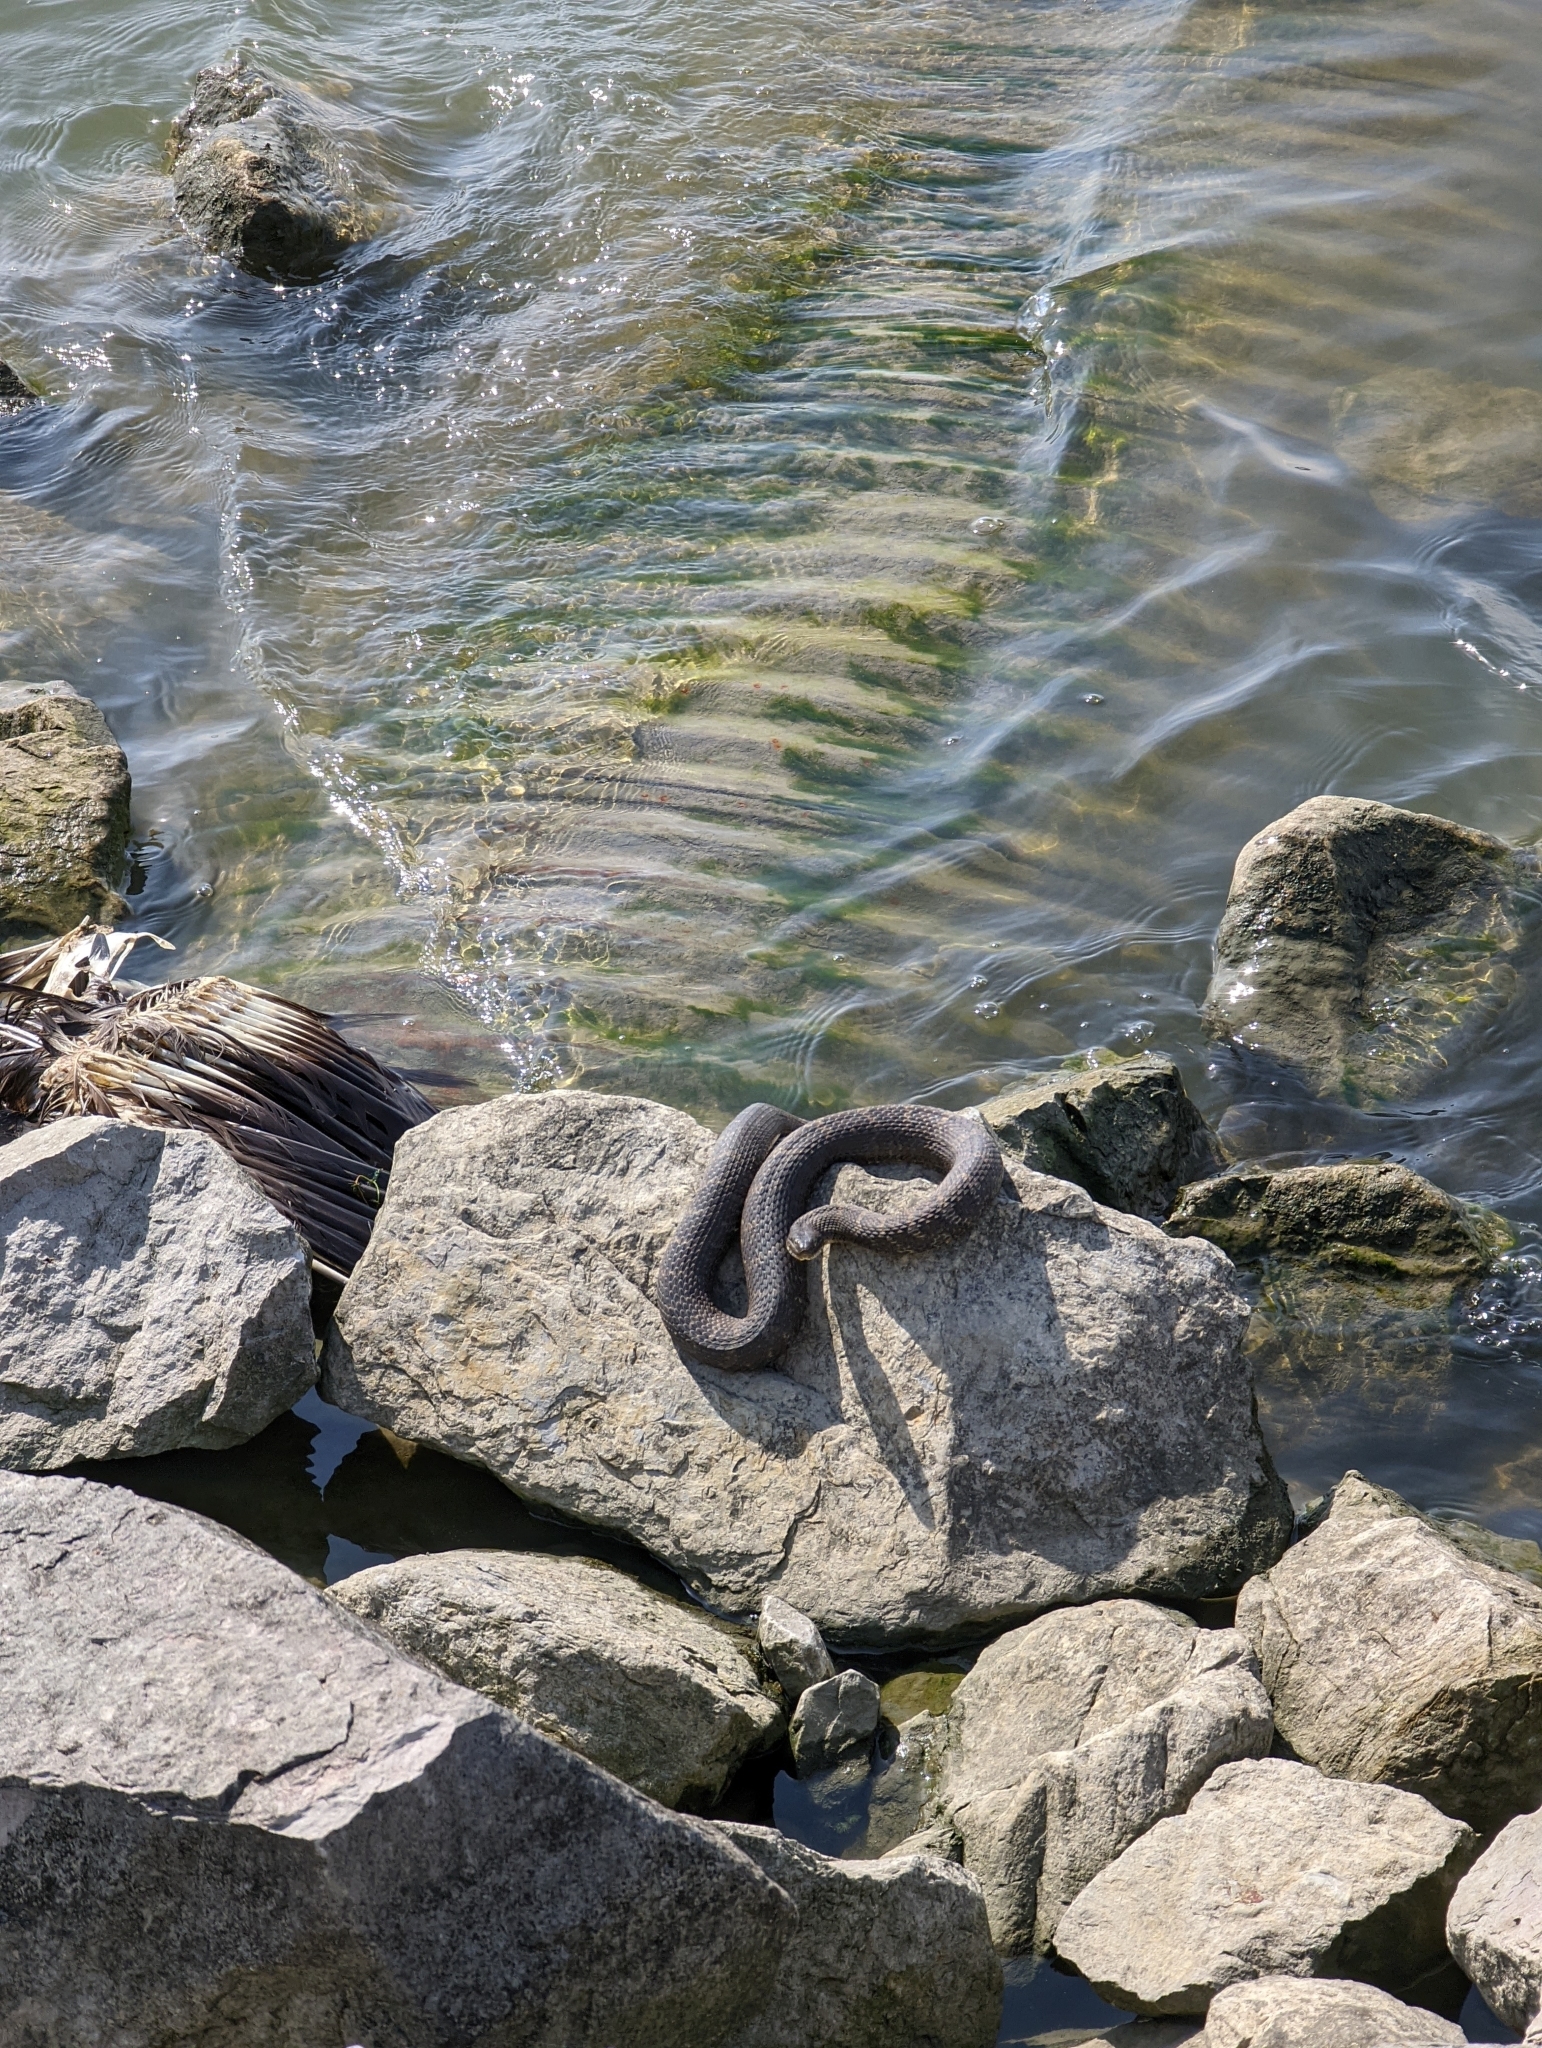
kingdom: Animalia
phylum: Chordata
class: Squamata
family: Colubridae
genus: Nerodia
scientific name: Nerodia sipedon
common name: Northern water snake
